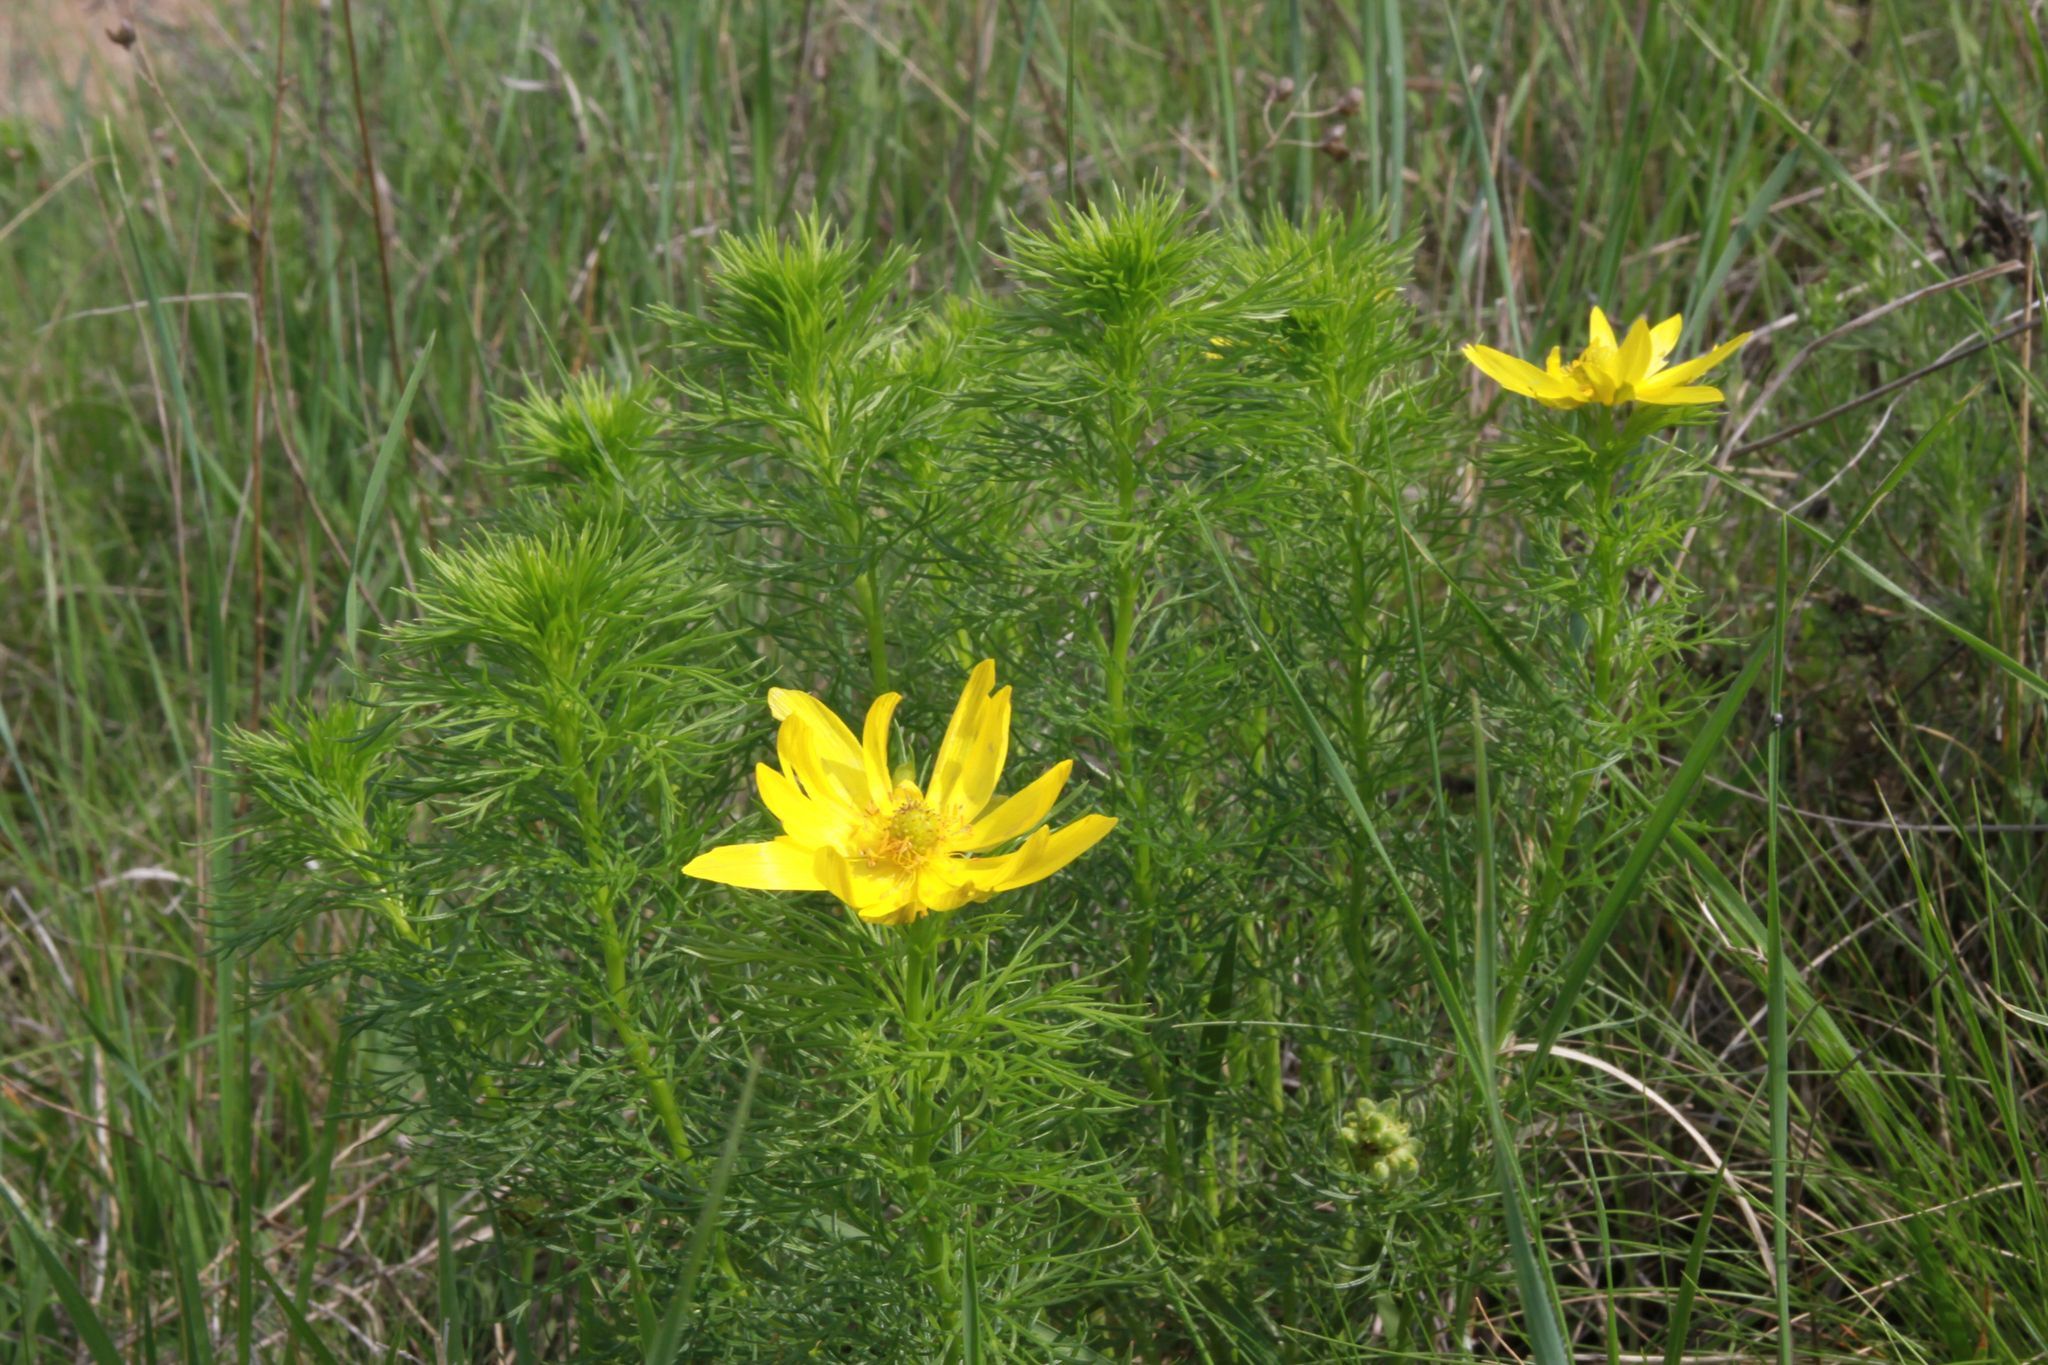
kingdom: Plantae
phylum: Tracheophyta
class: Magnoliopsida
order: Ranunculales
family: Ranunculaceae
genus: Adonis
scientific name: Adonis vernalis
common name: Yellow pheasants-eye
